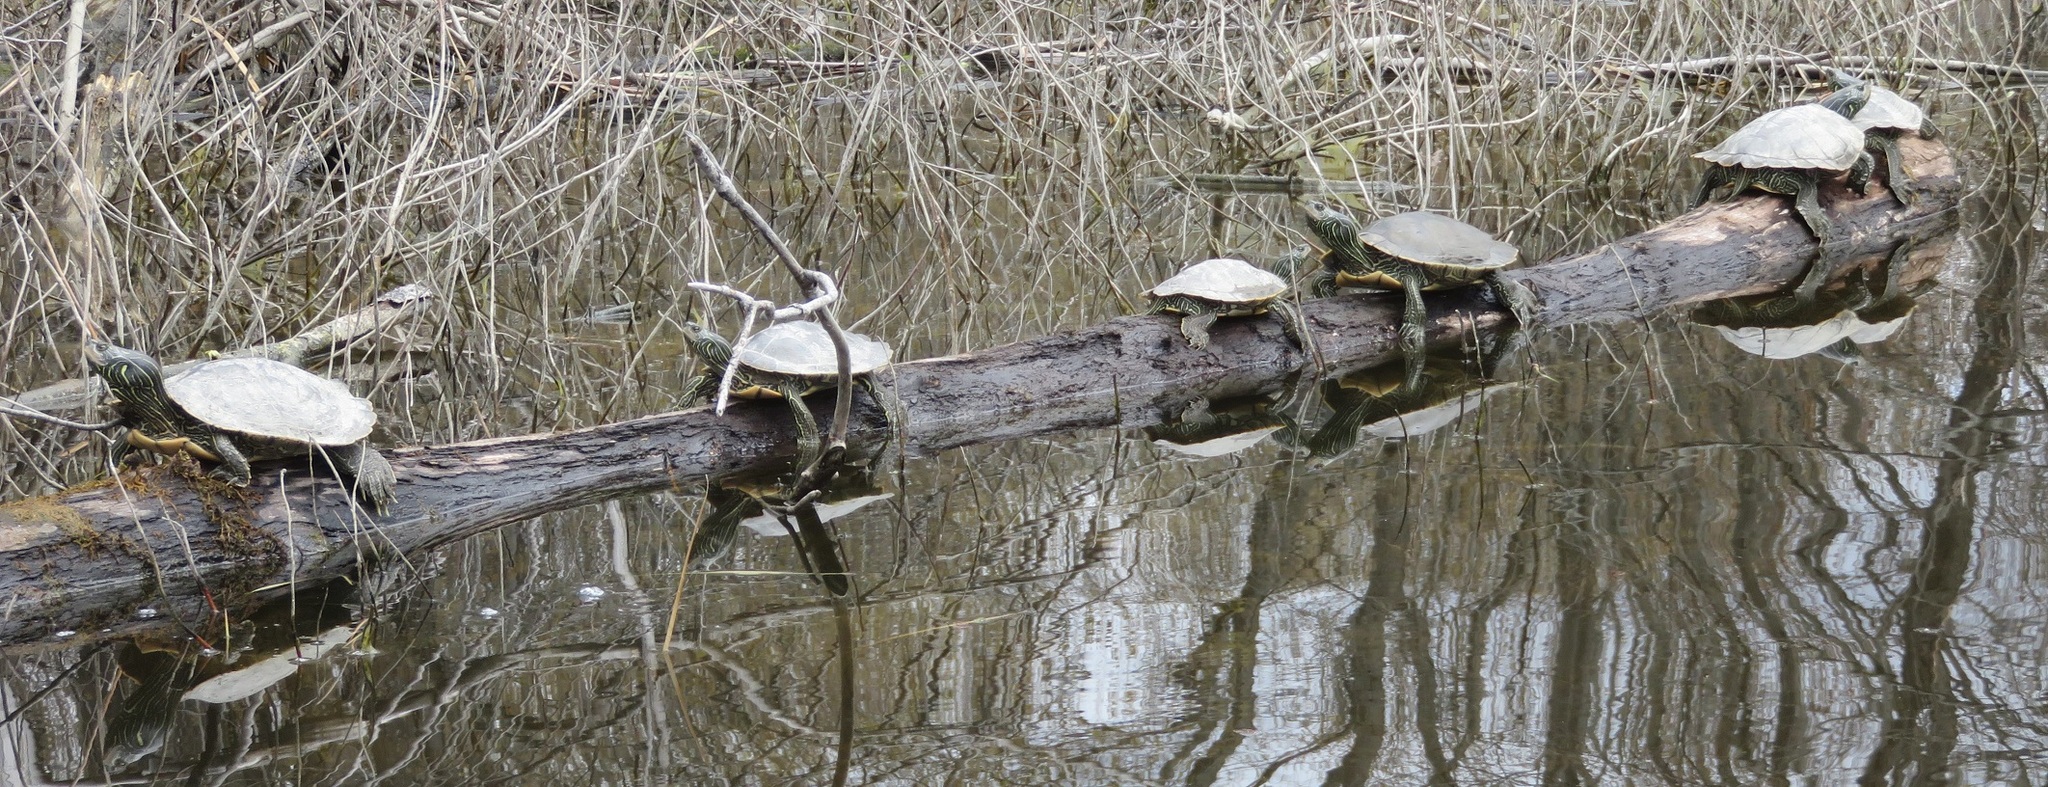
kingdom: Animalia
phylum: Chordata
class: Testudines
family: Emydidae
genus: Graptemys
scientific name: Graptemys geographica
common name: Common map turtle
